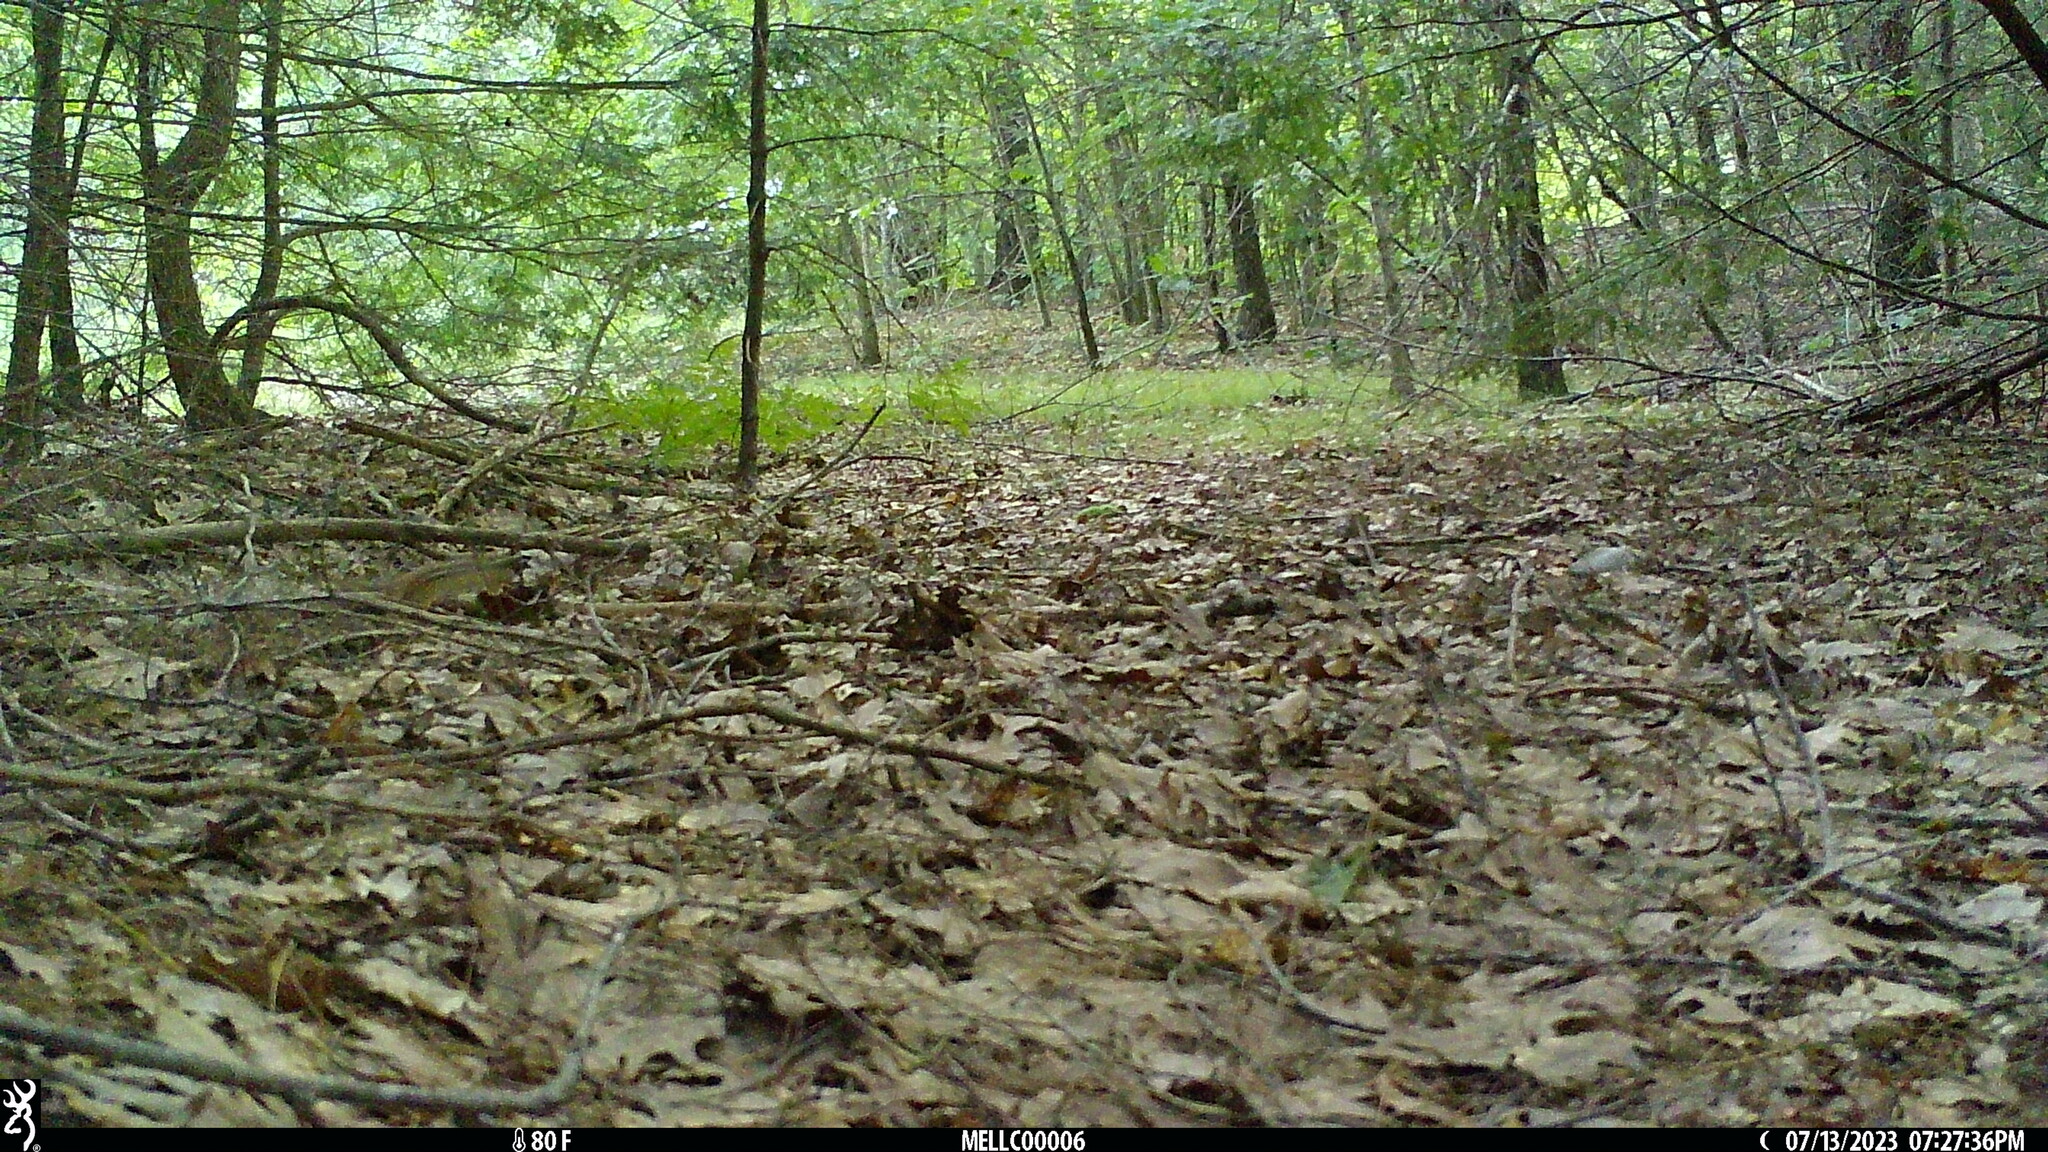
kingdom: Animalia
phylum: Chordata
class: Mammalia
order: Rodentia
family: Sciuridae
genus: Tamias
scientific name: Tamias striatus
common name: Eastern chipmunk
